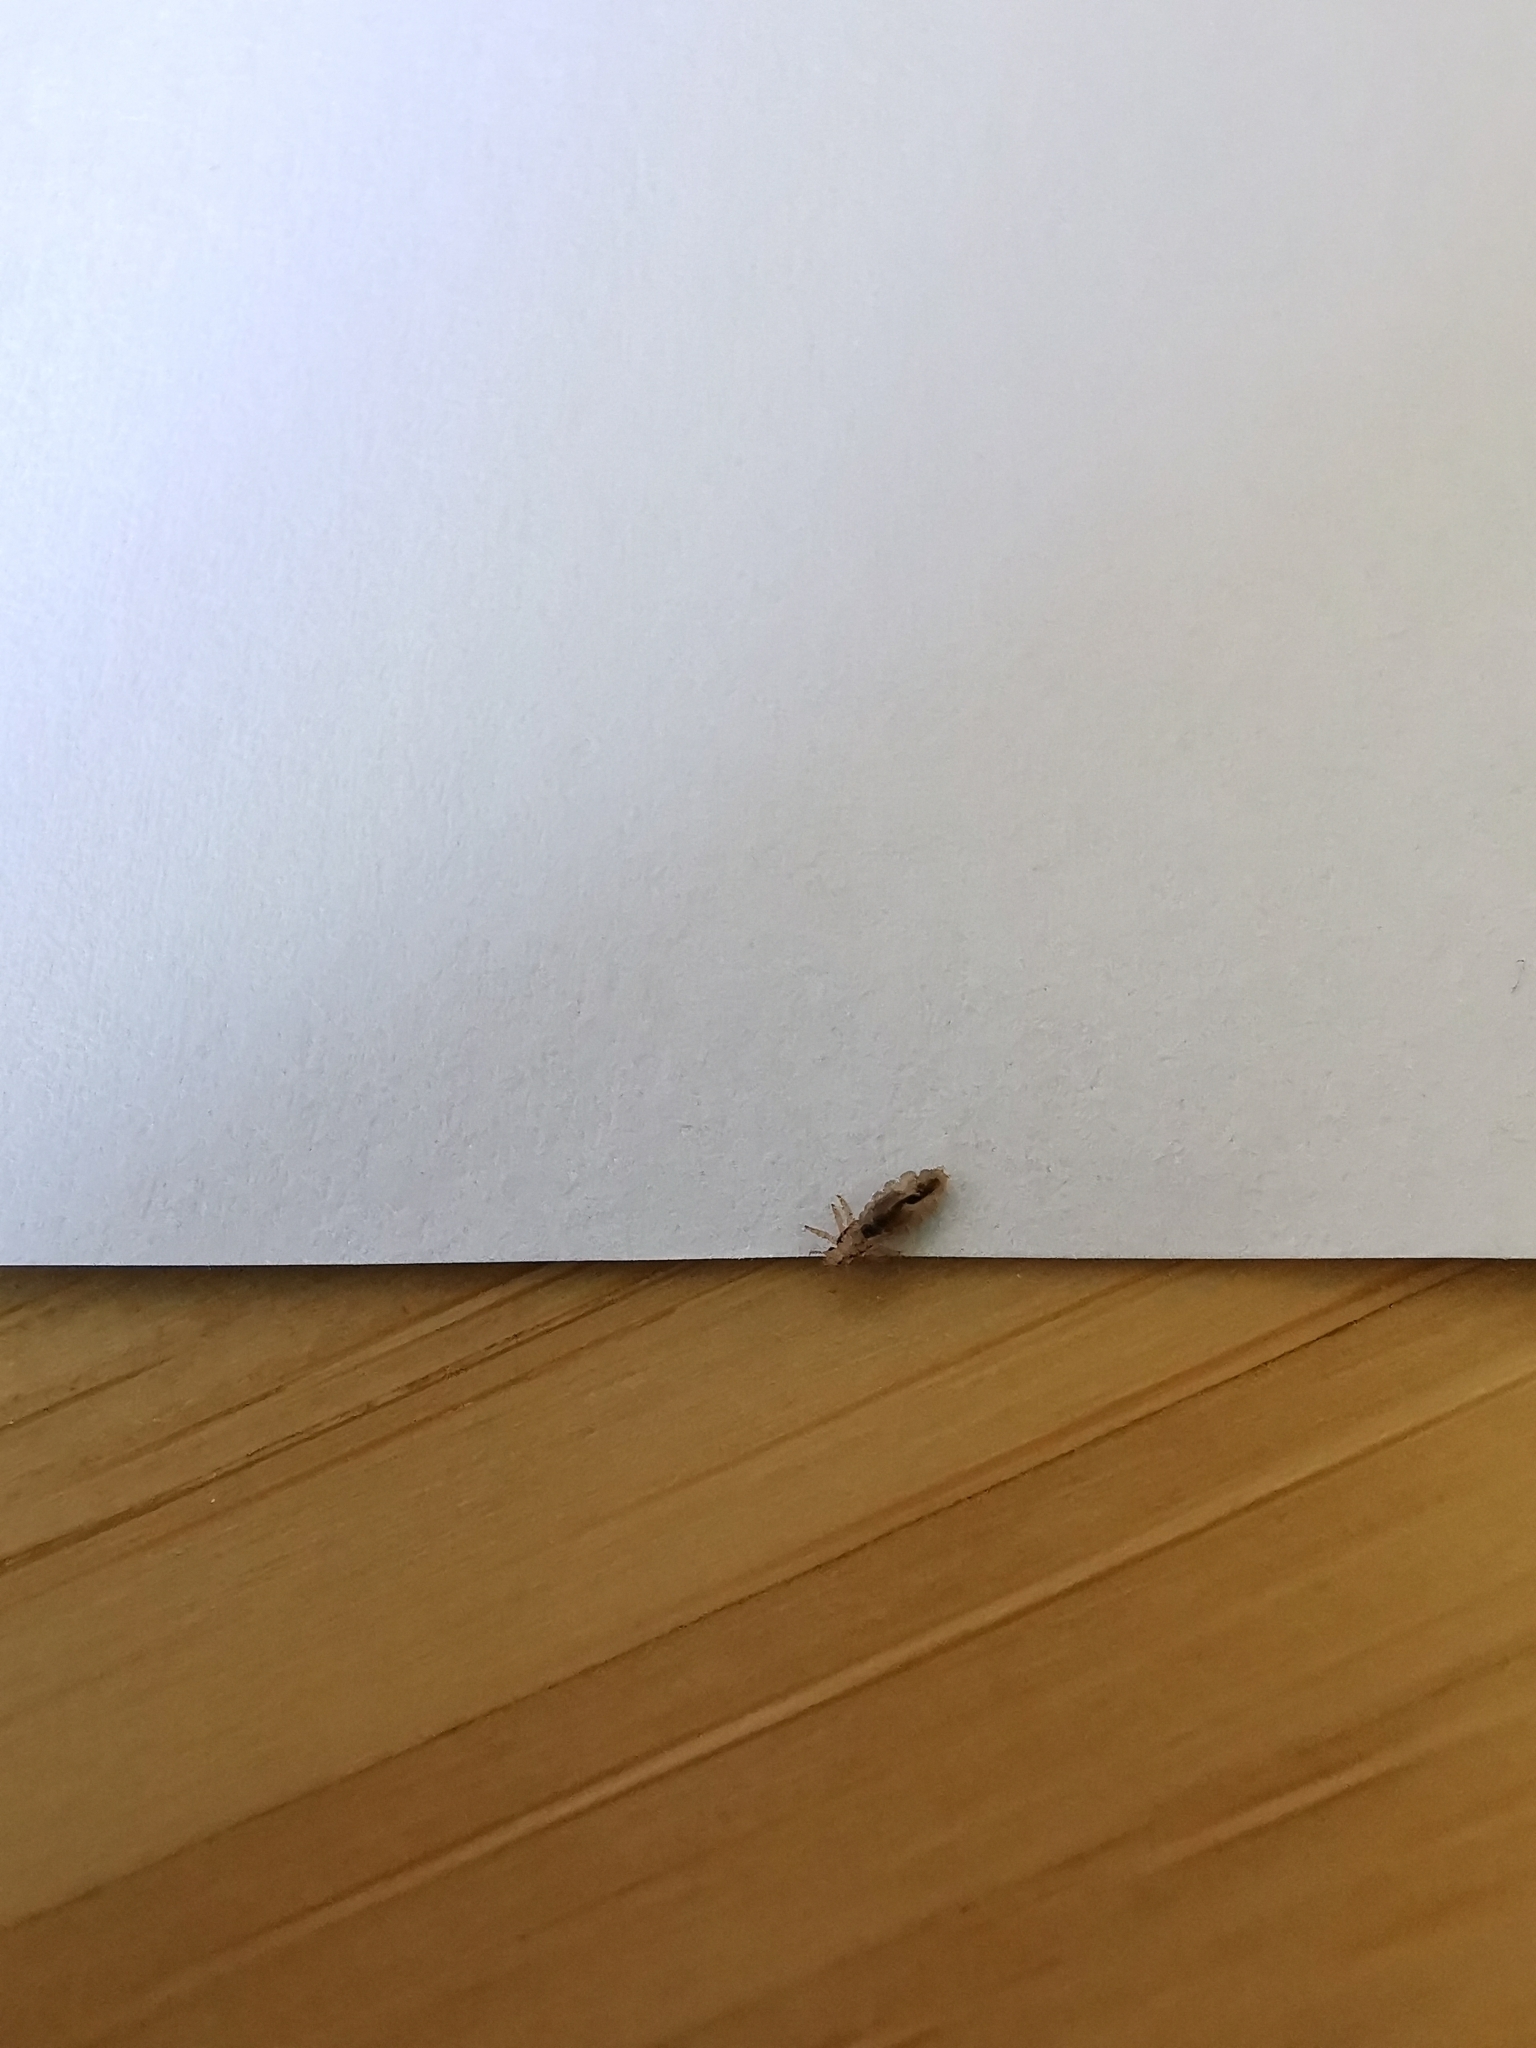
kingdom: Animalia
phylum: Arthropoda
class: Insecta
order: Psocodea
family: Pediculidae
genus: Pediculus
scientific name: Pediculus humanus
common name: Body louse
